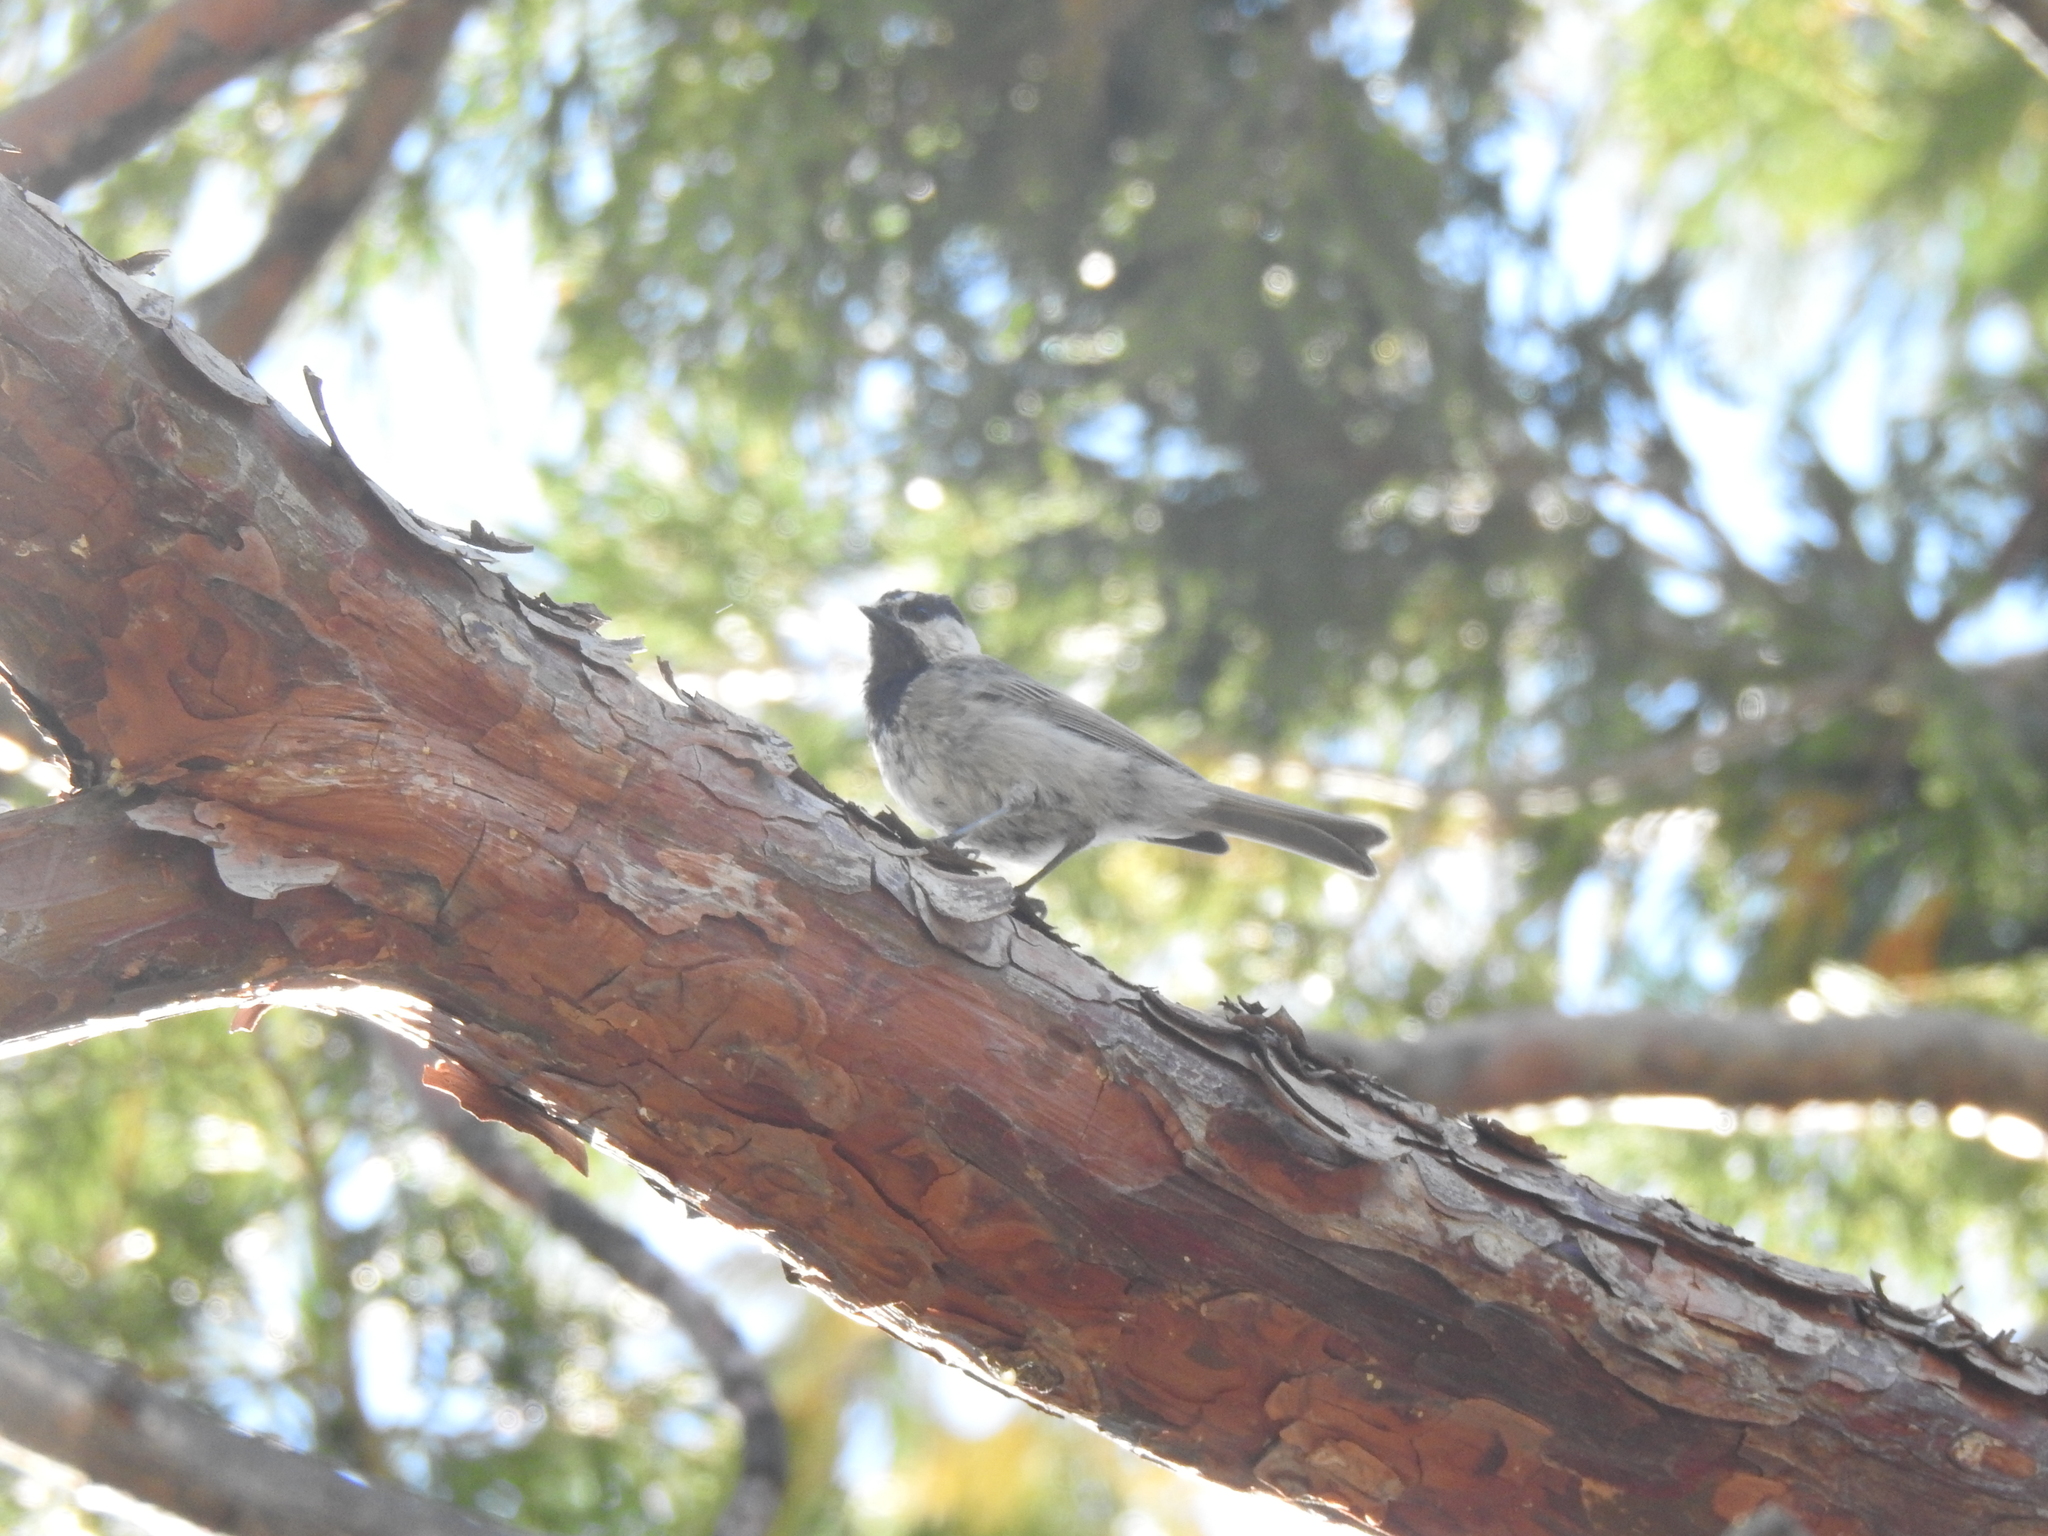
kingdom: Animalia
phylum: Chordata
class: Aves
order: Passeriformes
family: Paridae
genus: Poecile
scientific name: Poecile gambeli
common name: Mountain chickadee
